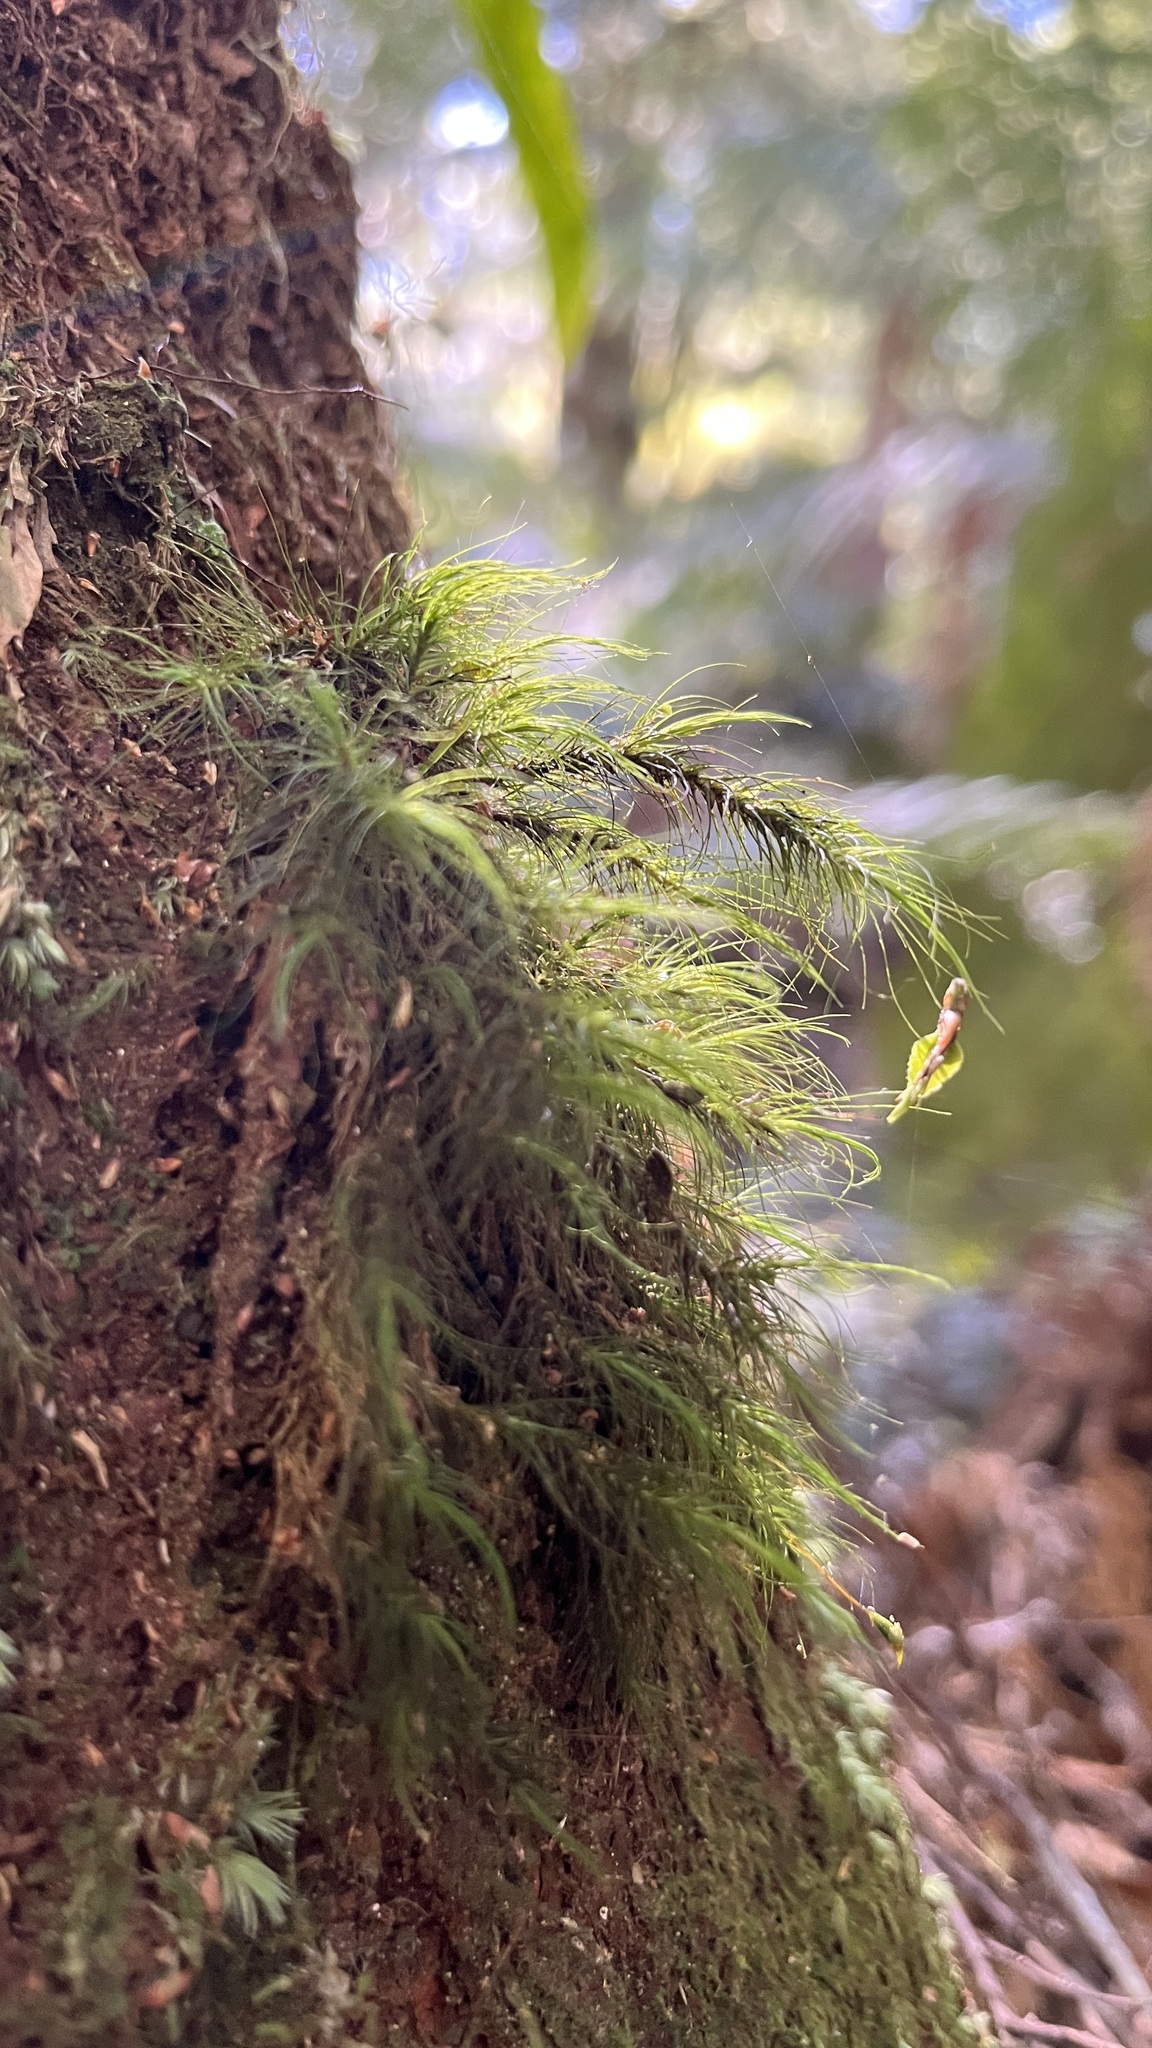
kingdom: Plantae
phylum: Bryophyta
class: Bryopsida
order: Dicranales
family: Dicranaceae
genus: Dicranoloma
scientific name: Dicranoloma menziesii
